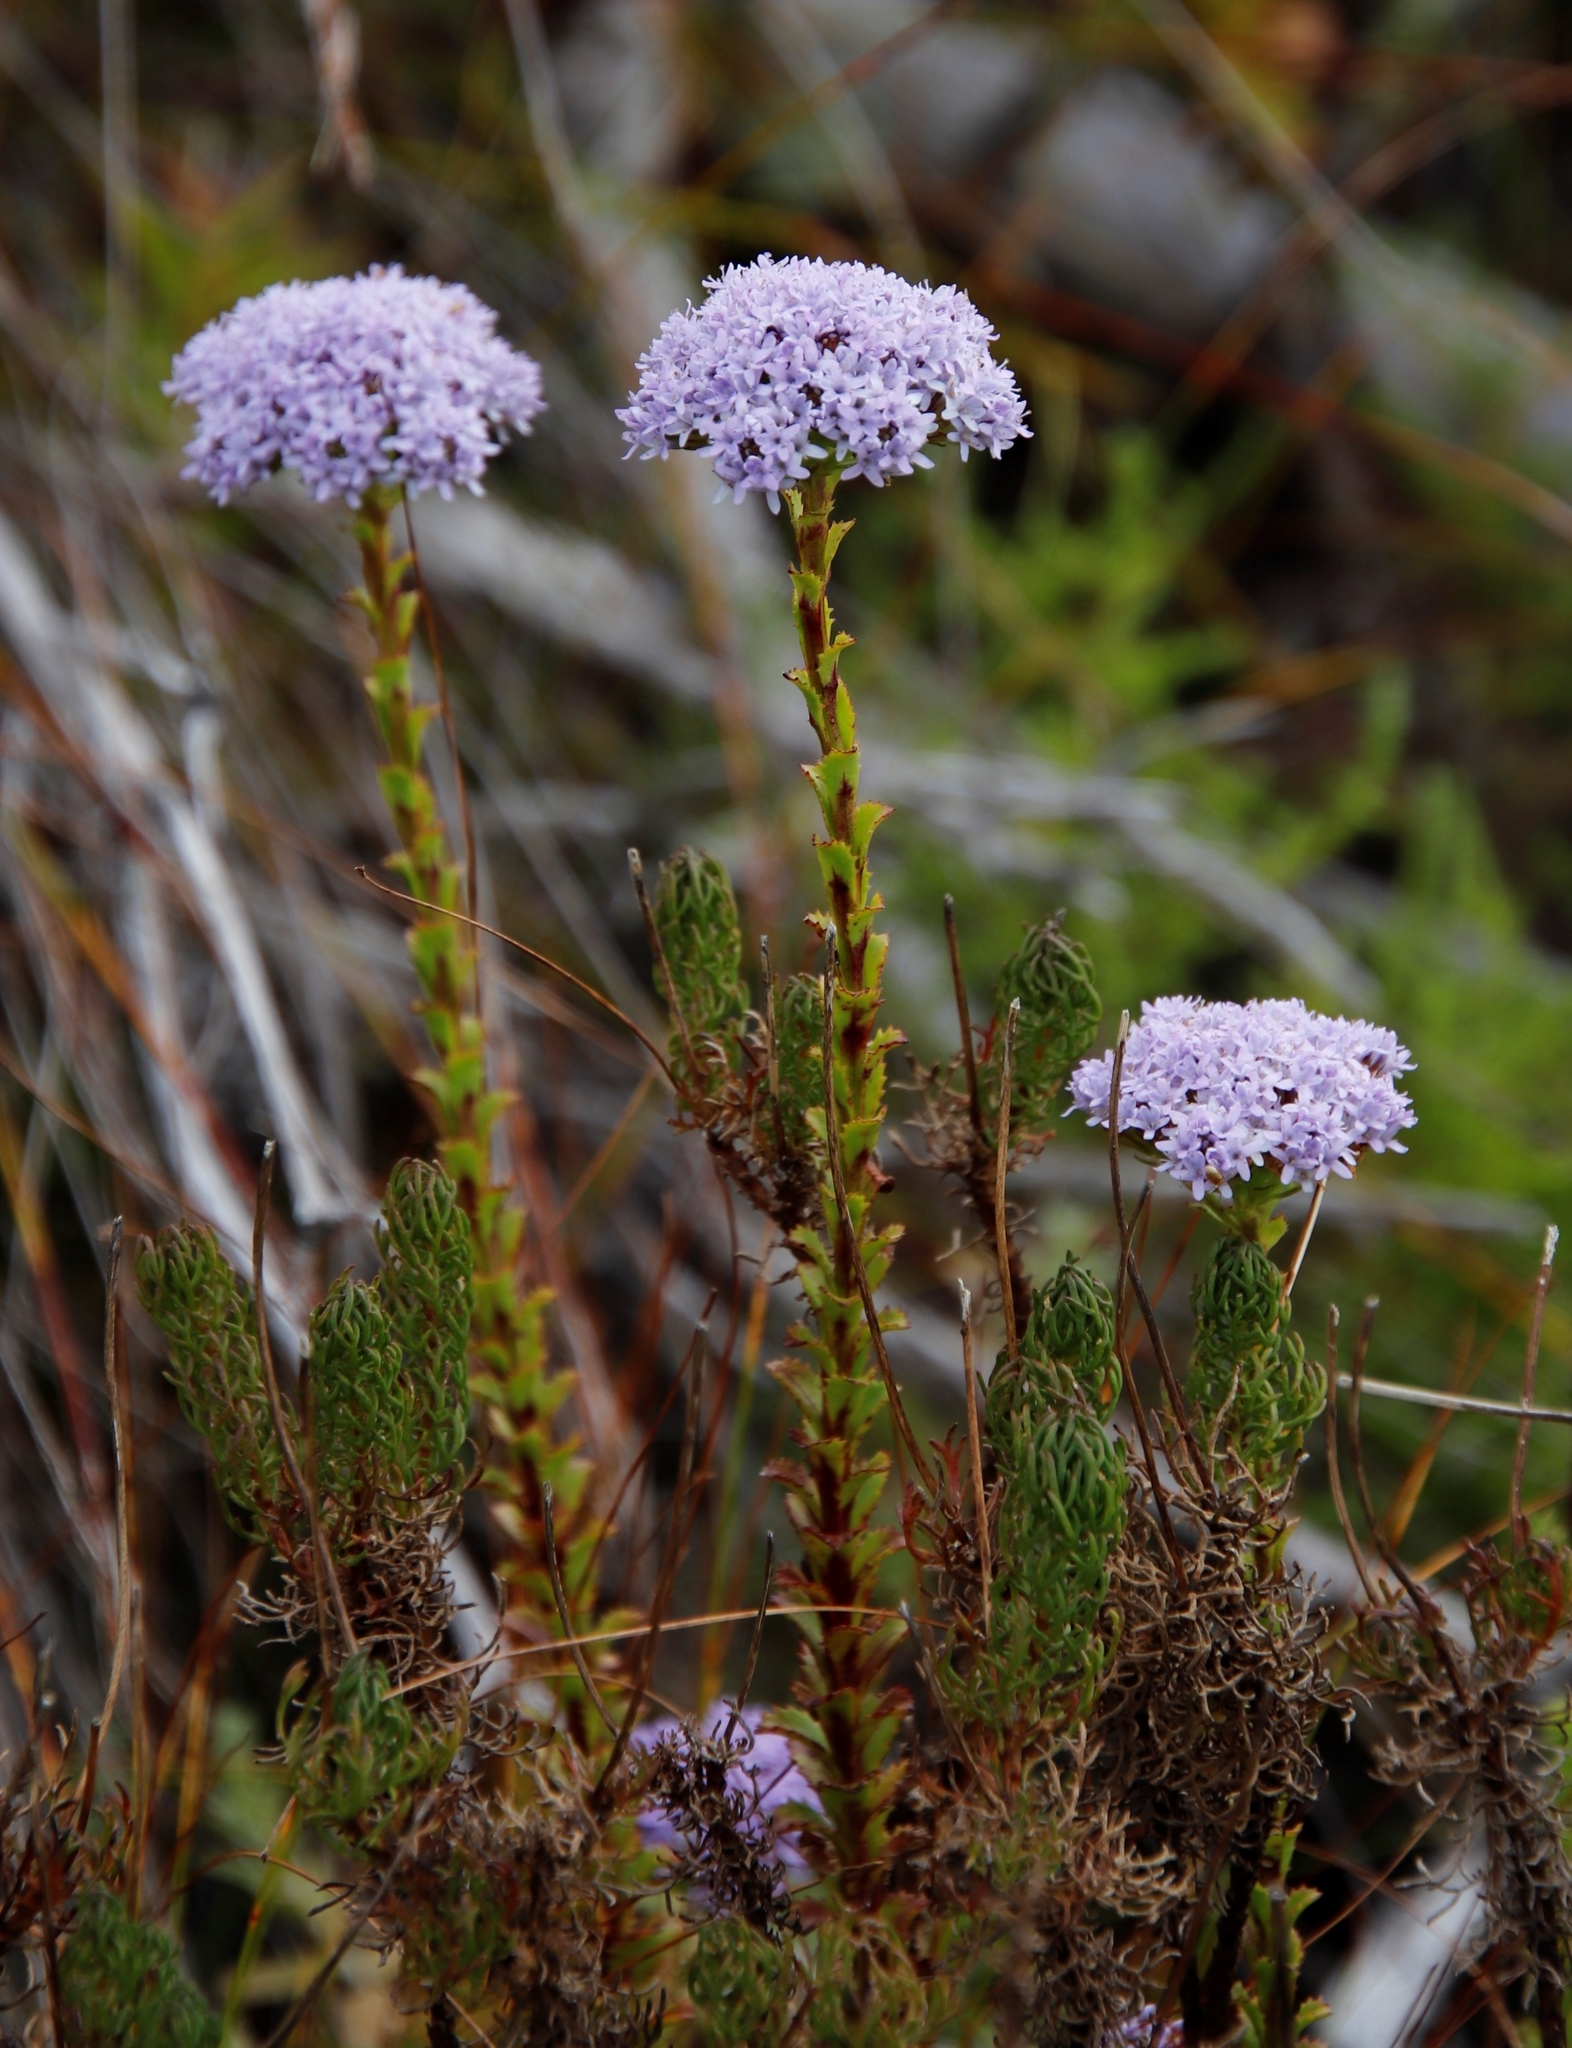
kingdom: Plantae
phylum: Tracheophyta
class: Magnoliopsida
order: Lamiales
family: Scrophulariaceae
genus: Pseudoselago
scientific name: Pseudoselago serrata
